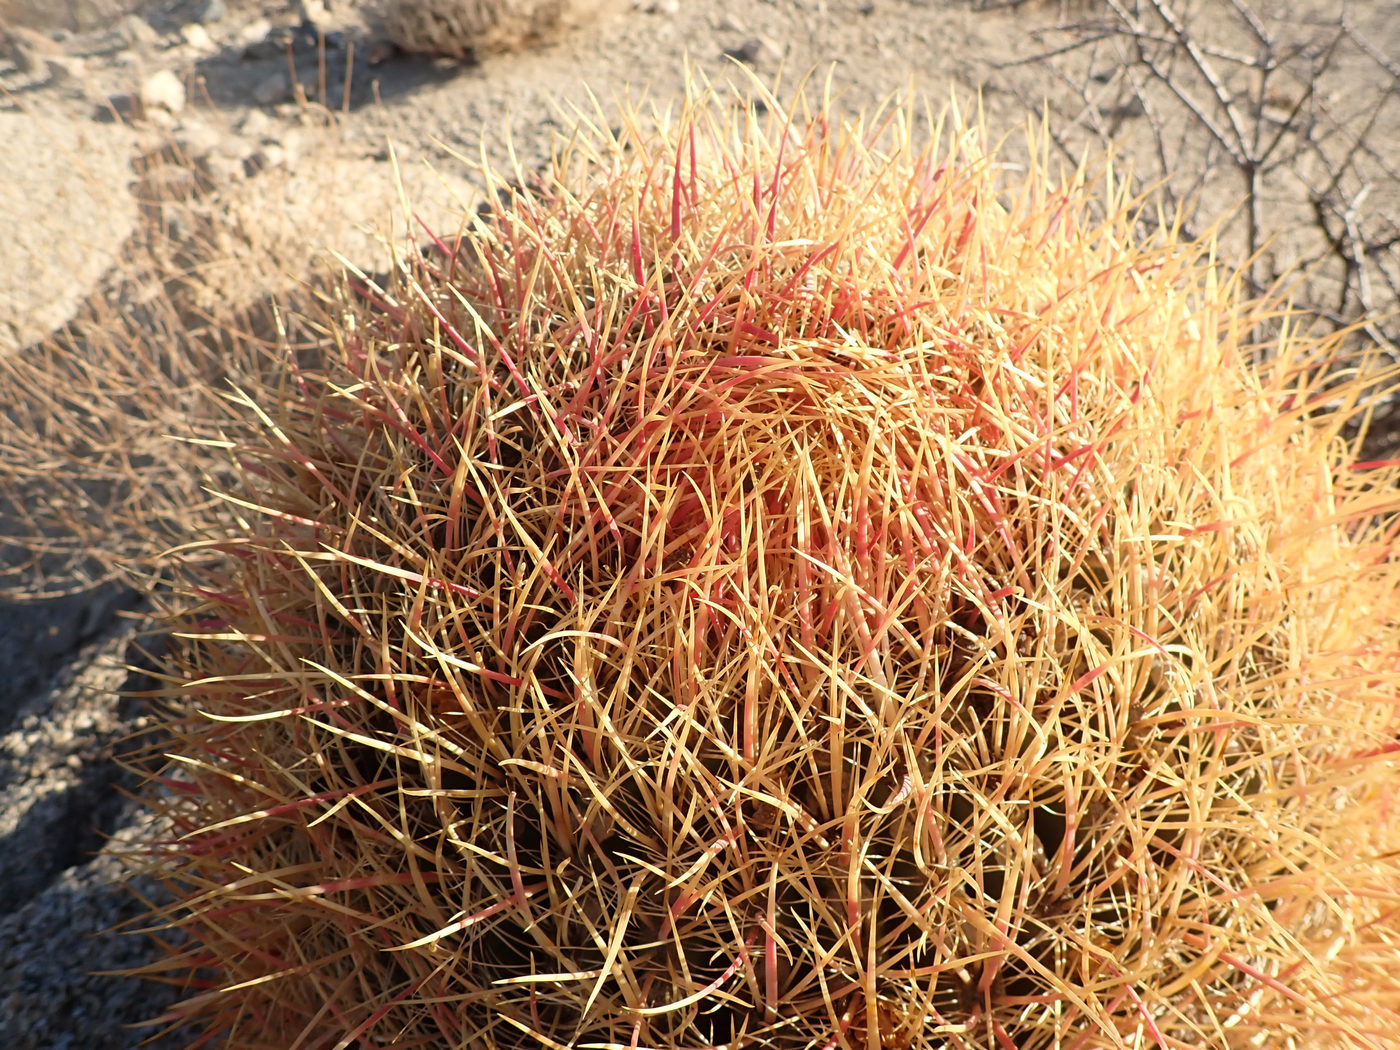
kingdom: Plantae
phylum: Tracheophyta
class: Magnoliopsida
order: Caryophyllales
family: Cactaceae
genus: Ferocactus
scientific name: Ferocactus cylindraceus
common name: California barrel cactus
